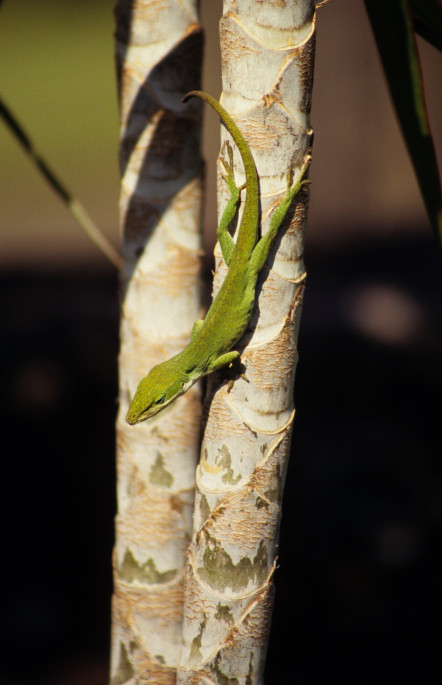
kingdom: Animalia
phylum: Chordata
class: Squamata
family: Dactyloidae
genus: Anolis
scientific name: Anolis carolinensis
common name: Green anole
